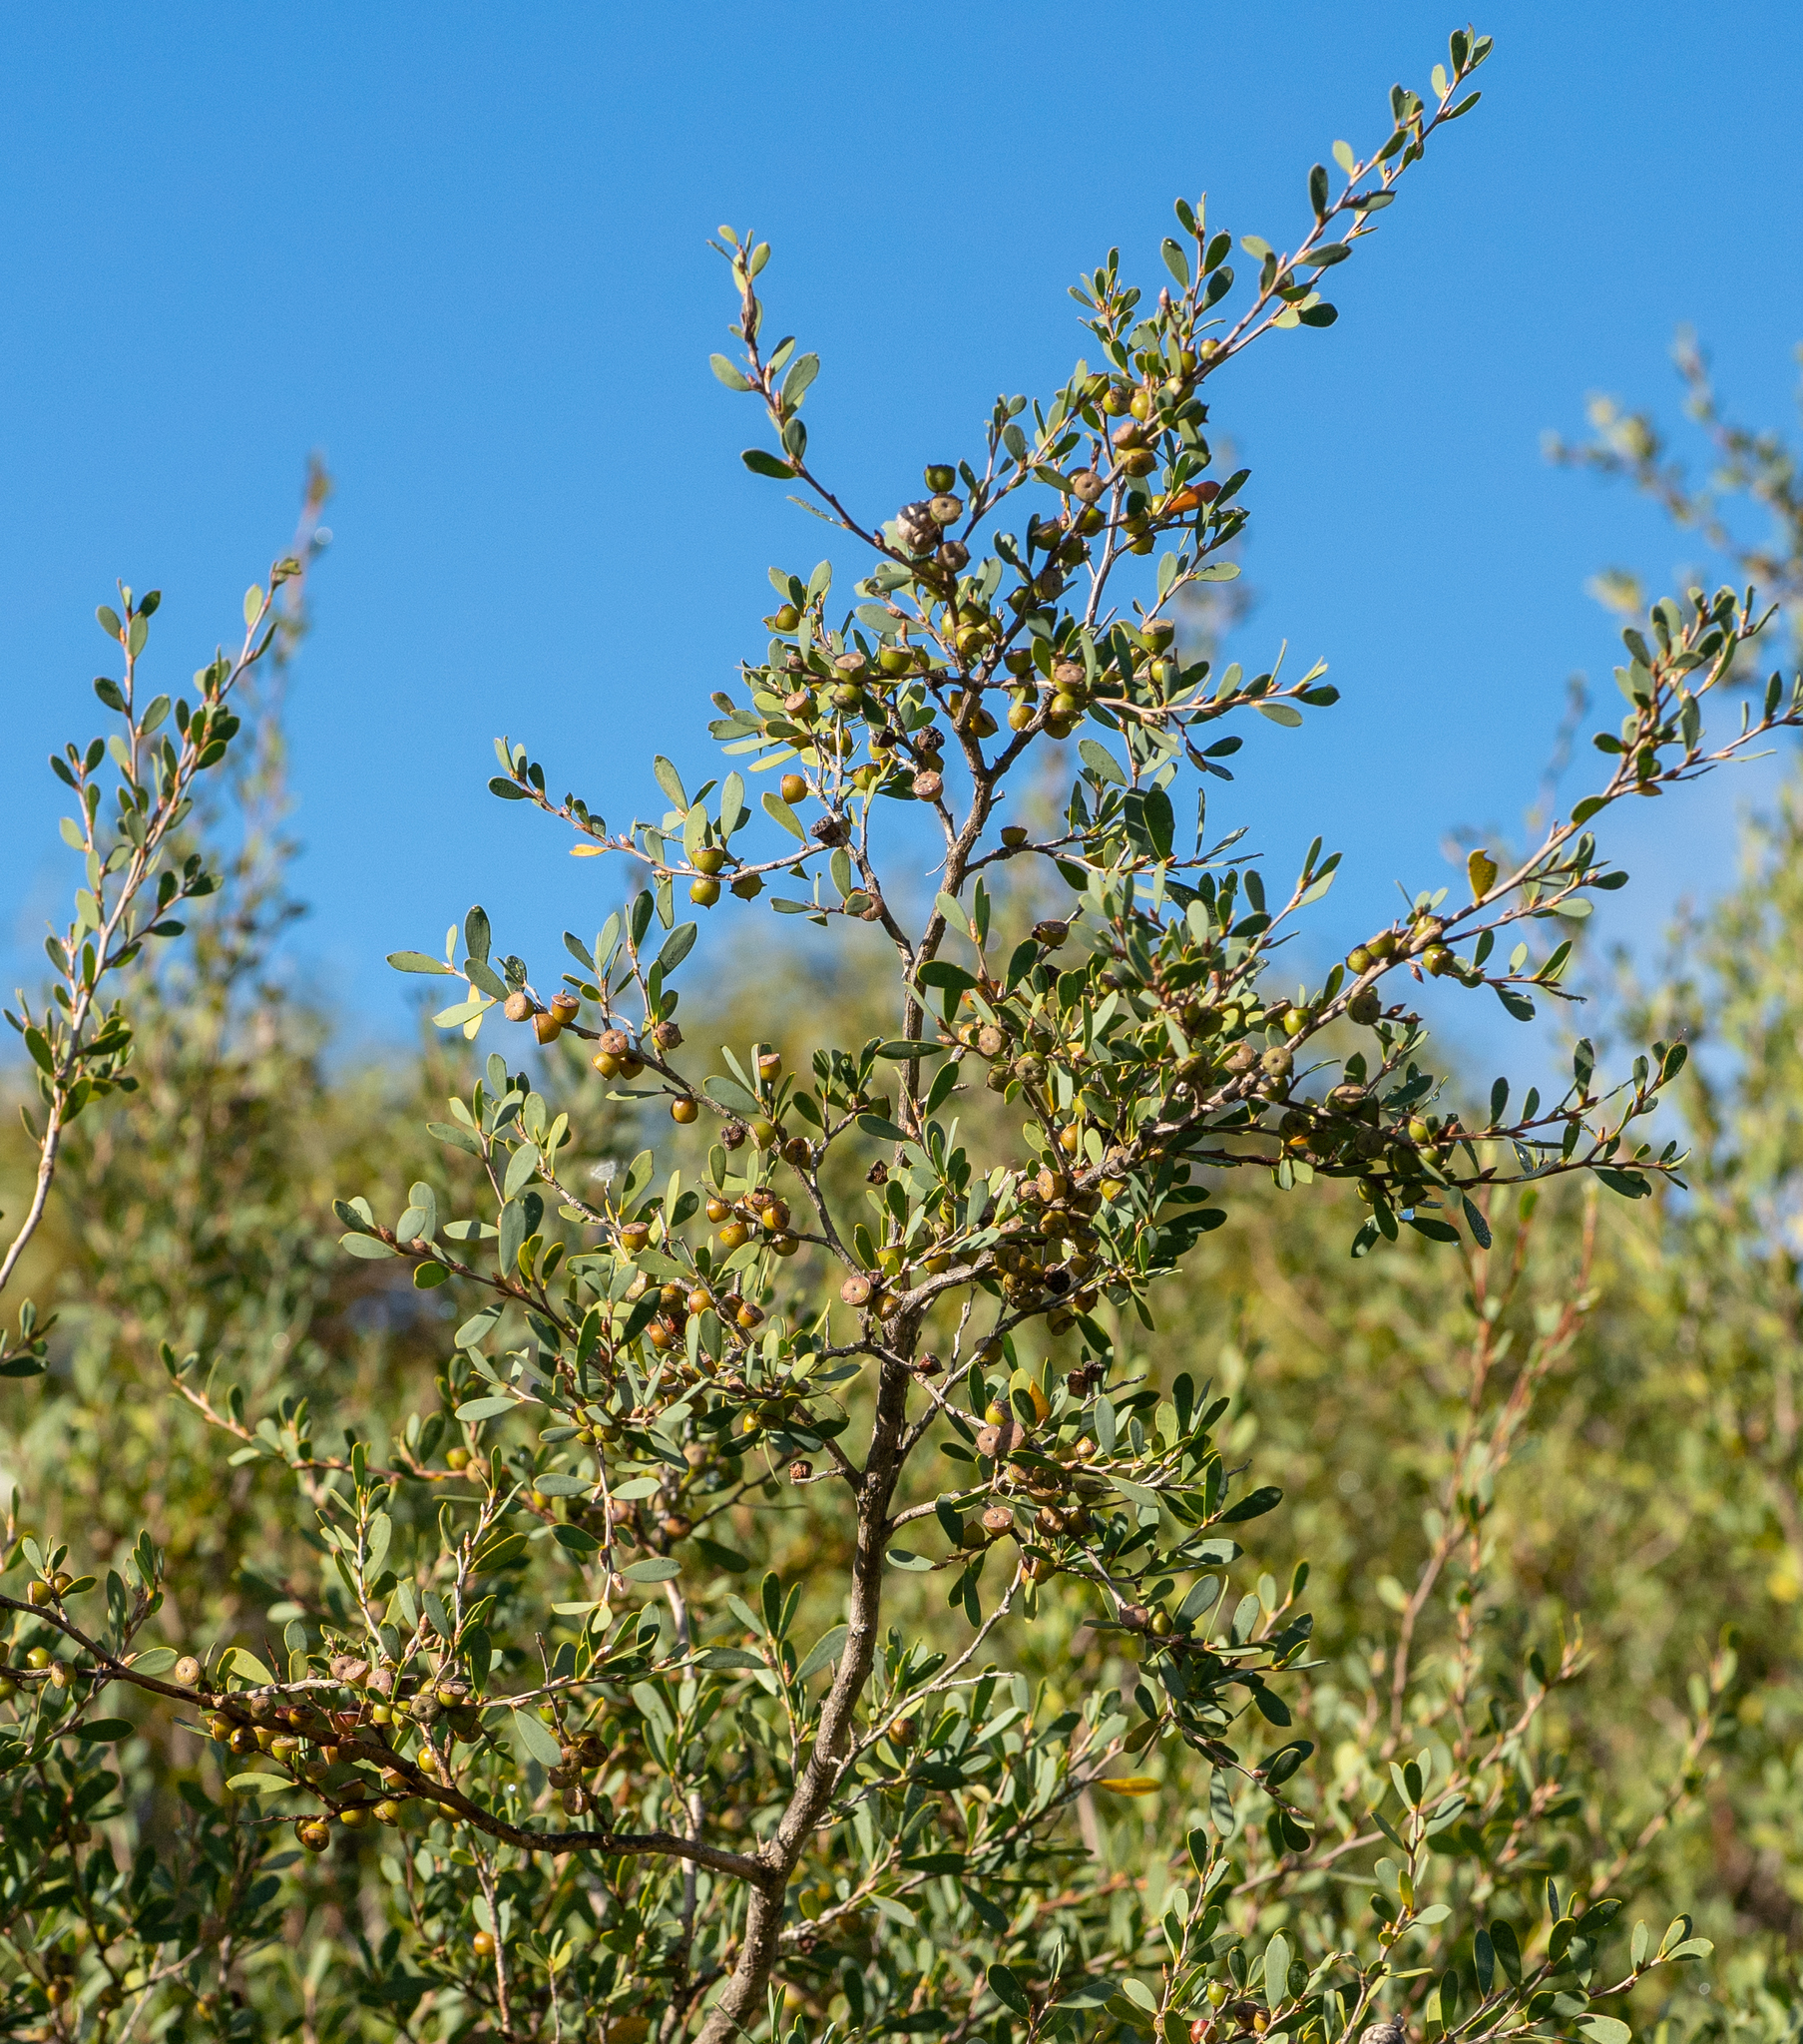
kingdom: Plantae
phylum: Tracheophyta
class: Magnoliopsida
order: Myrtales
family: Myrtaceae
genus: Leptospermum
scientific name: Leptospermum laevigatum
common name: Australian teatree
